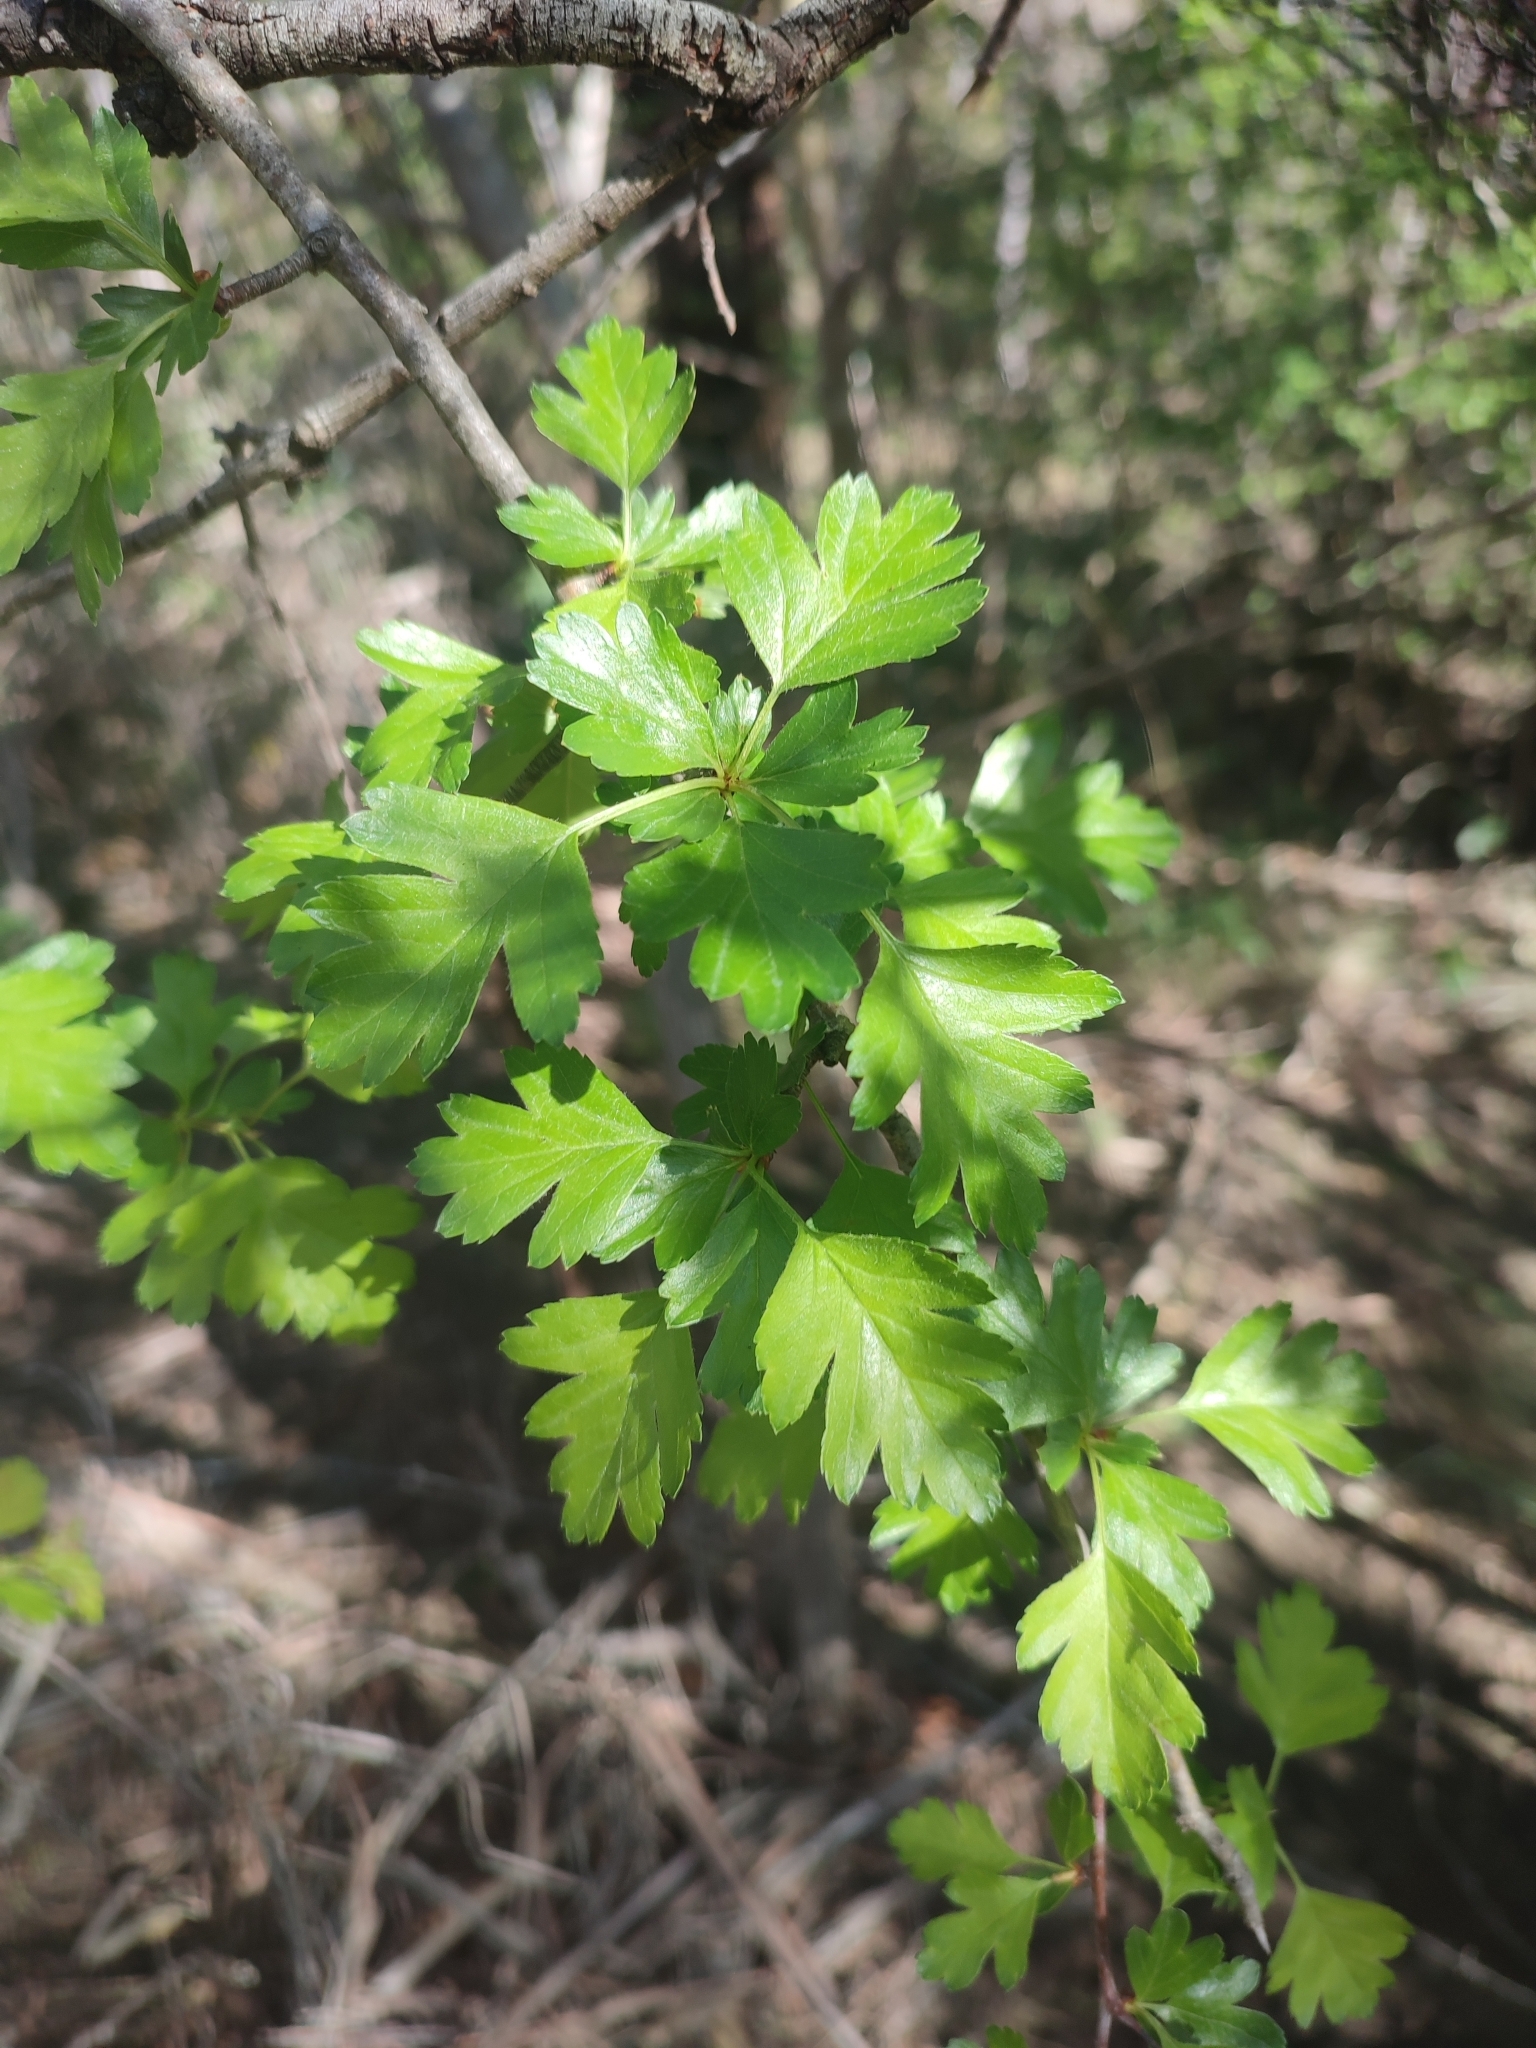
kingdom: Plantae
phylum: Tracheophyta
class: Magnoliopsida
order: Rosales
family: Rosaceae
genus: Crataegus
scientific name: Crataegus monogyna
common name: Hawthorn
